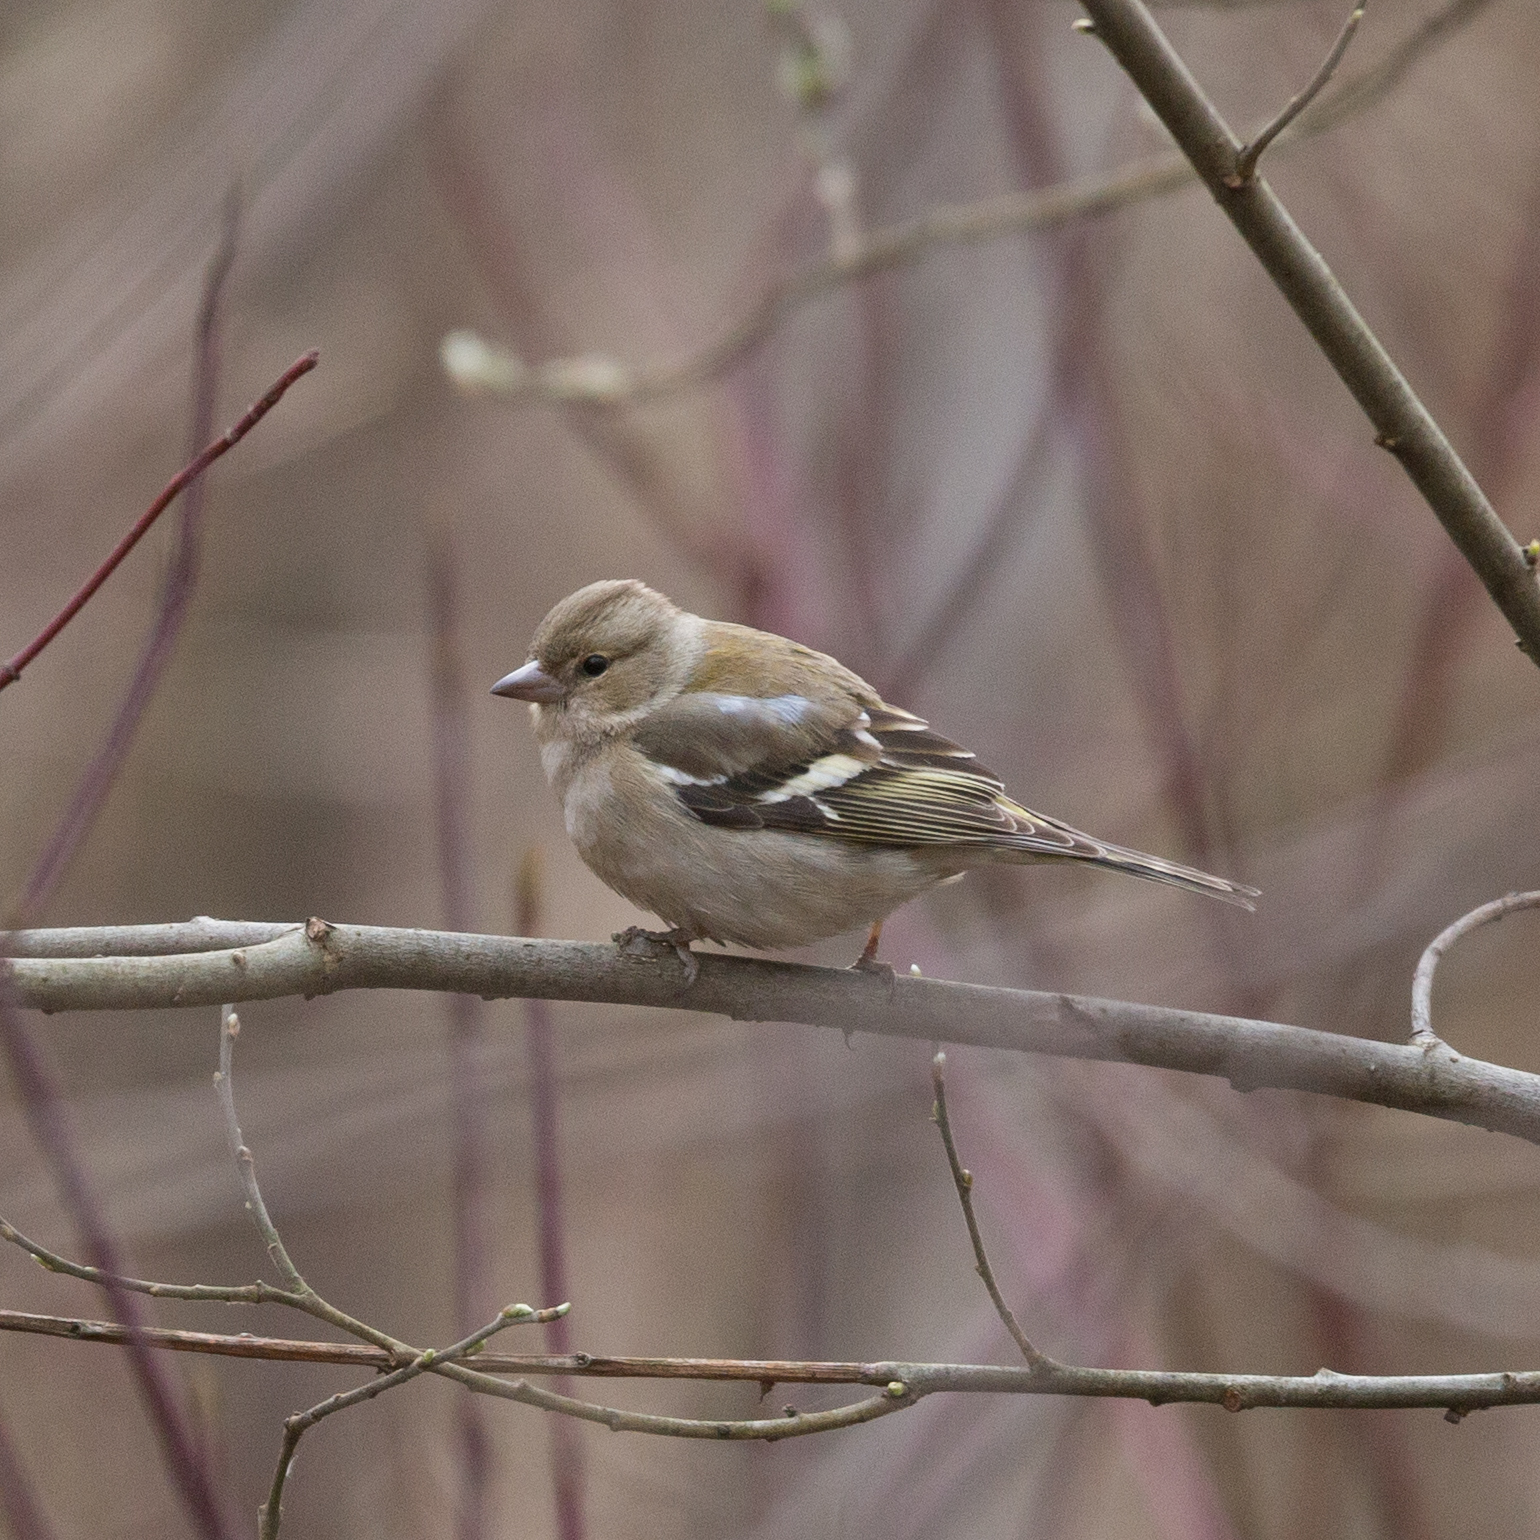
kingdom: Animalia
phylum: Chordata
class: Aves
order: Passeriformes
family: Fringillidae
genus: Fringilla
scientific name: Fringilla coelebs
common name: Common chaffinch
